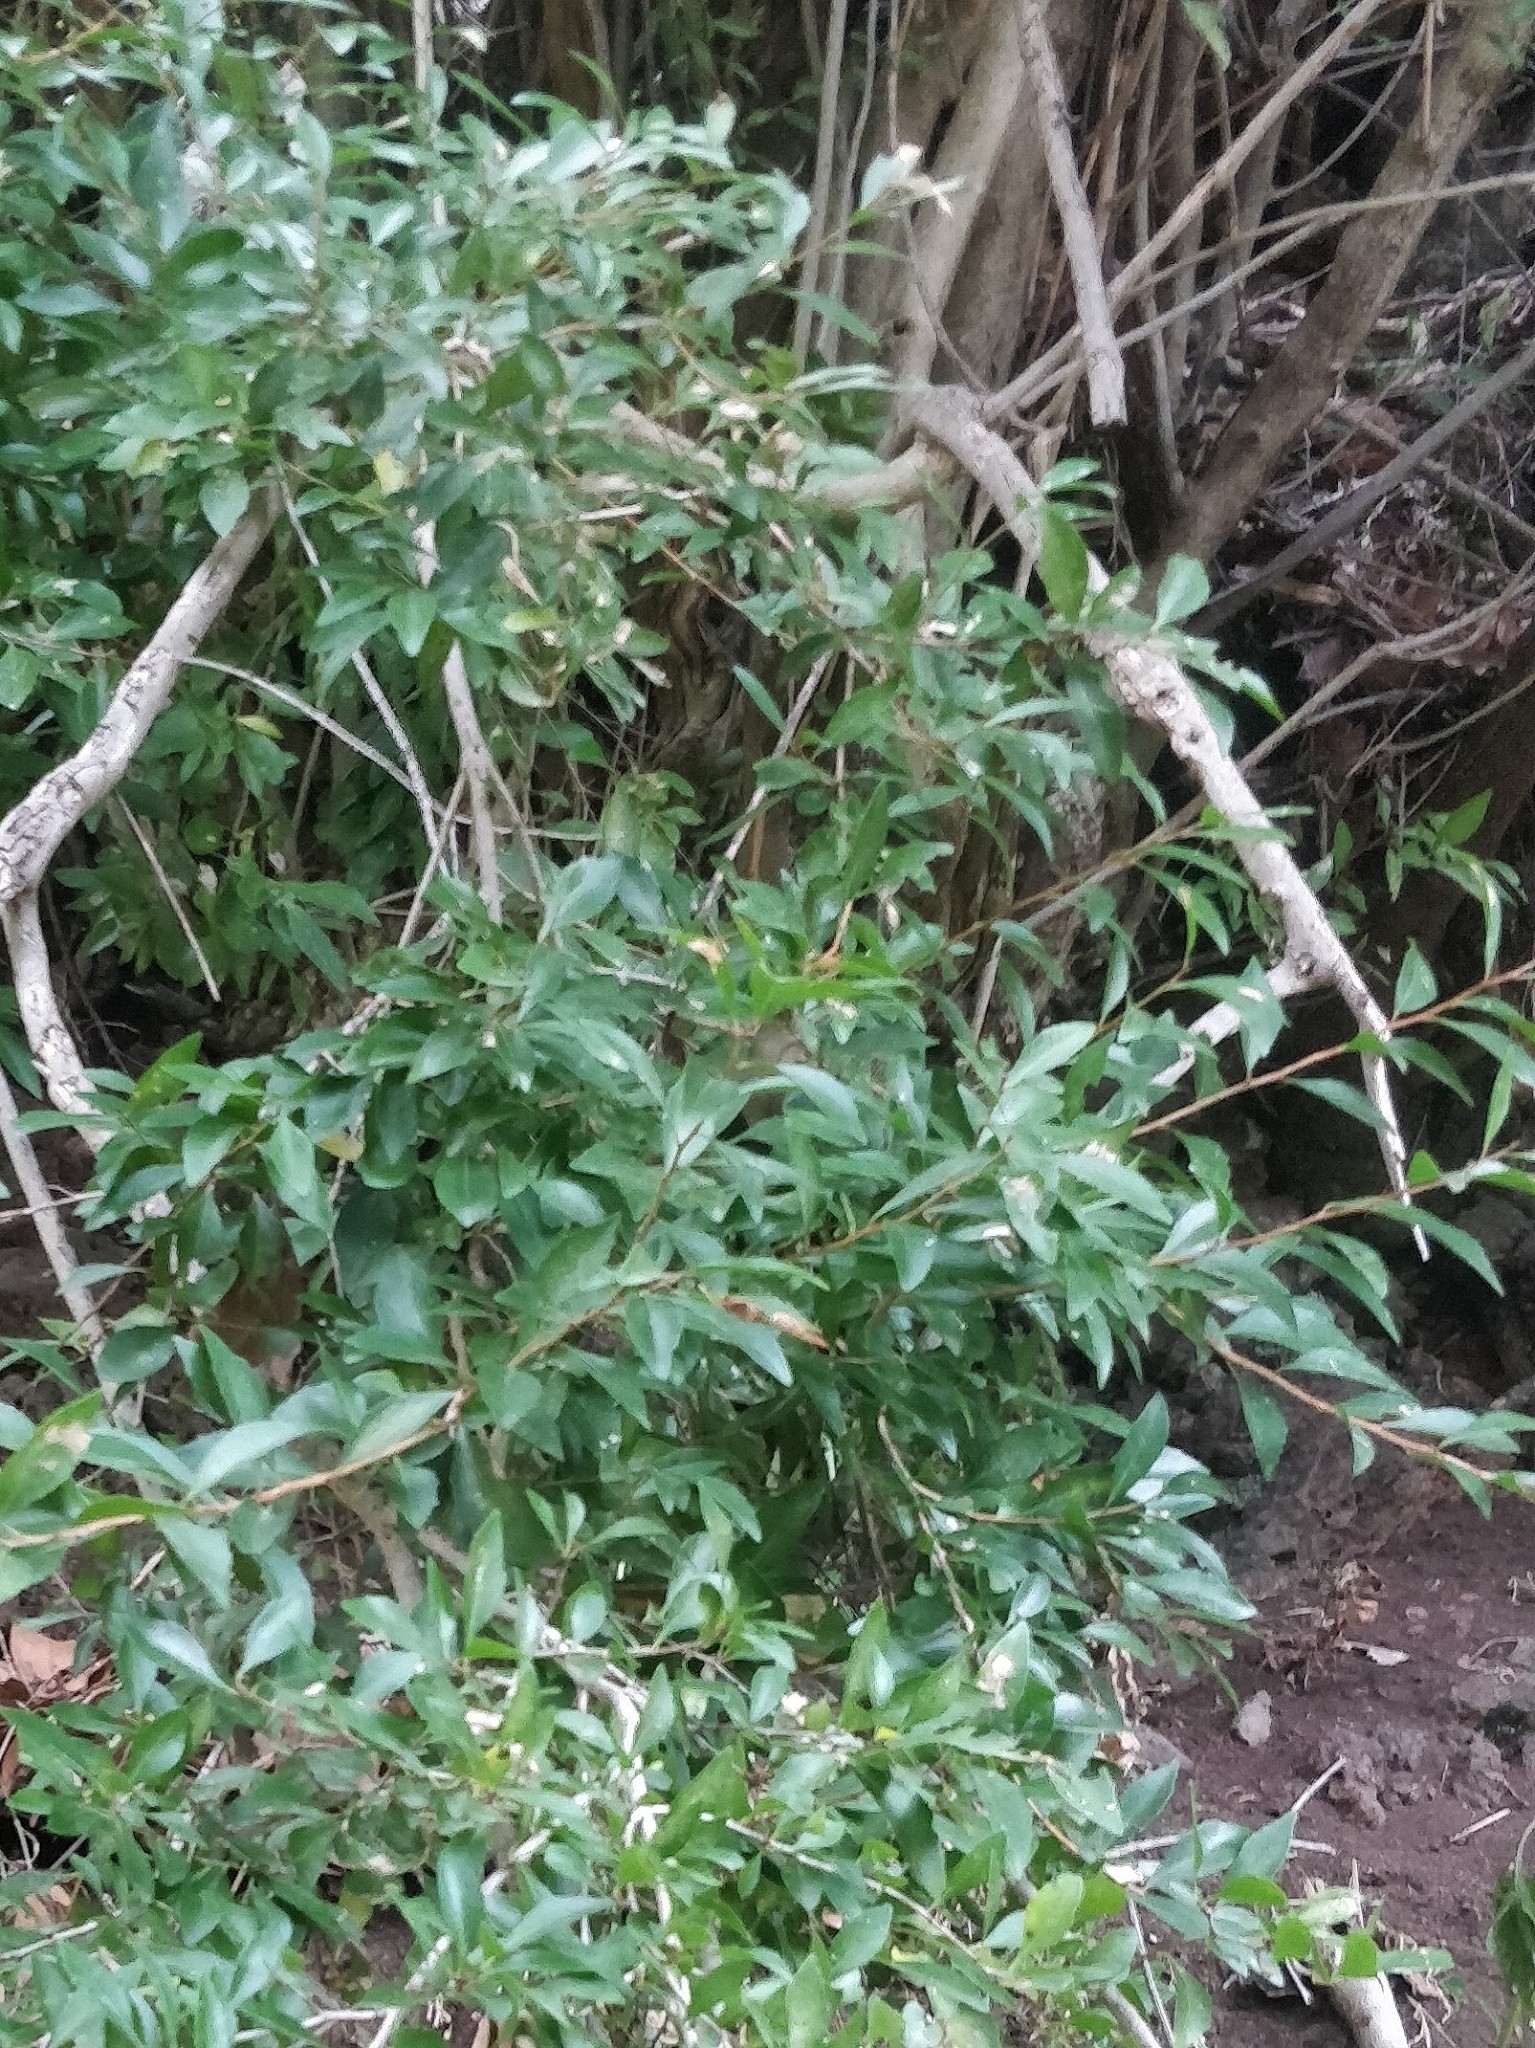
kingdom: Plantae
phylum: Tracheophyta
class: Magnoliopsida
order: Myrtales
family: Myrtaceae
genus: Myrtus
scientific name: Myrtus communis
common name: Myrtle
